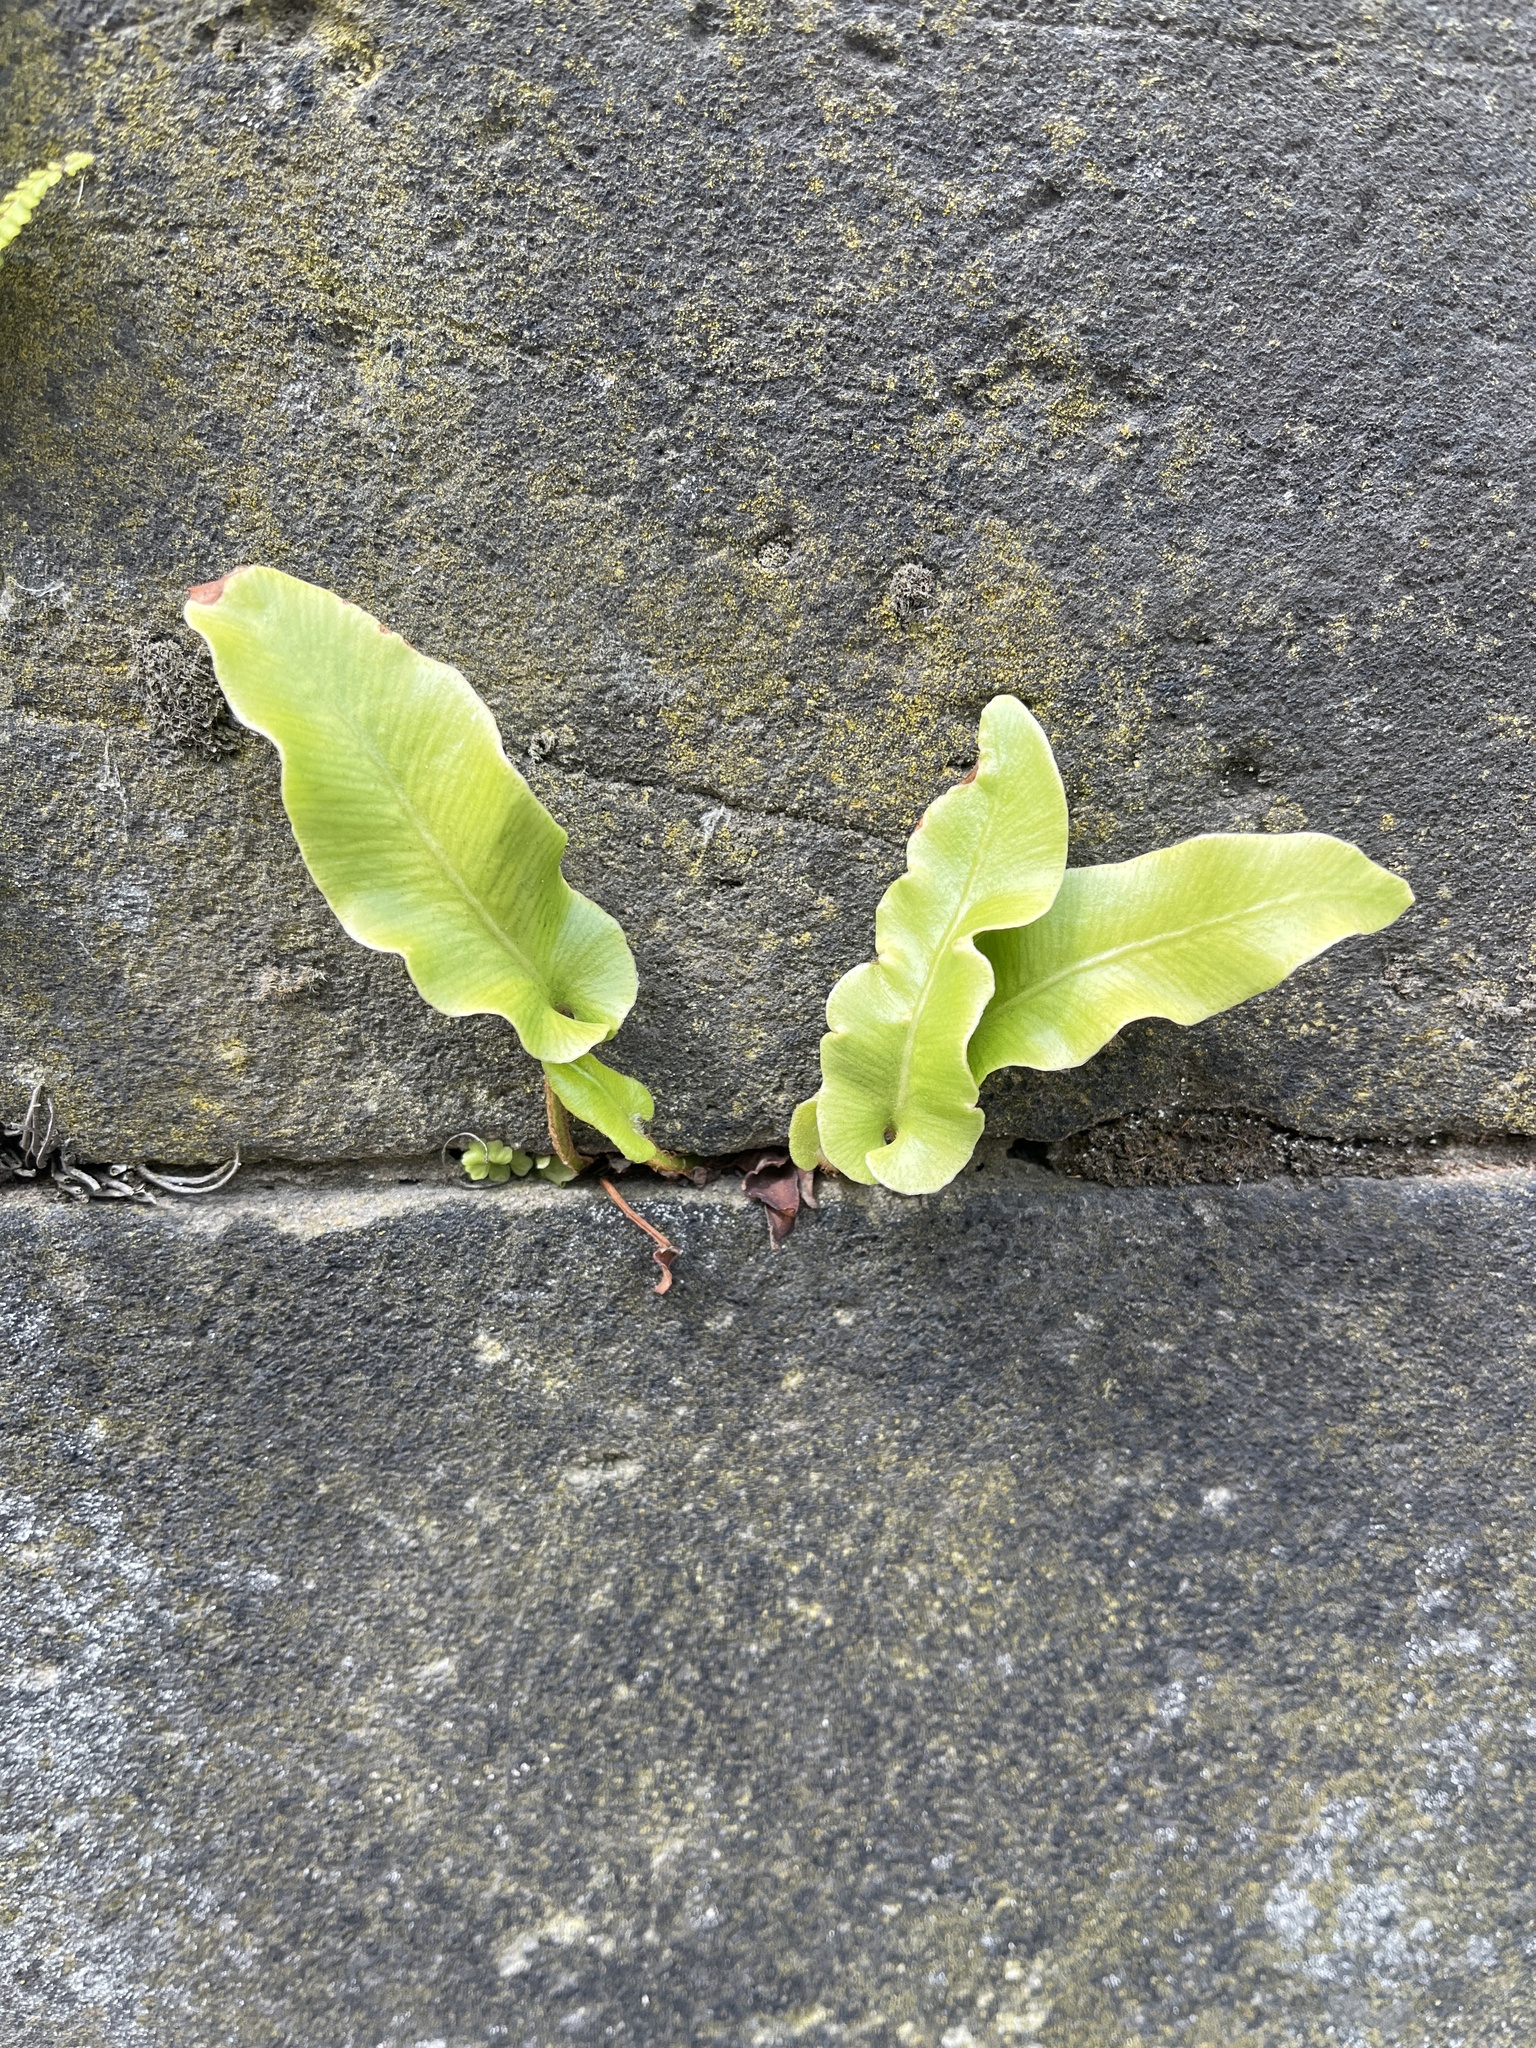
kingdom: Plantae
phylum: Tracheophyta
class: Polypodiopsida
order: Polypodiales
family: Aspleniaceae
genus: Asplenium
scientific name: Asplenium scolopendrium
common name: Hart's-tongue fern
